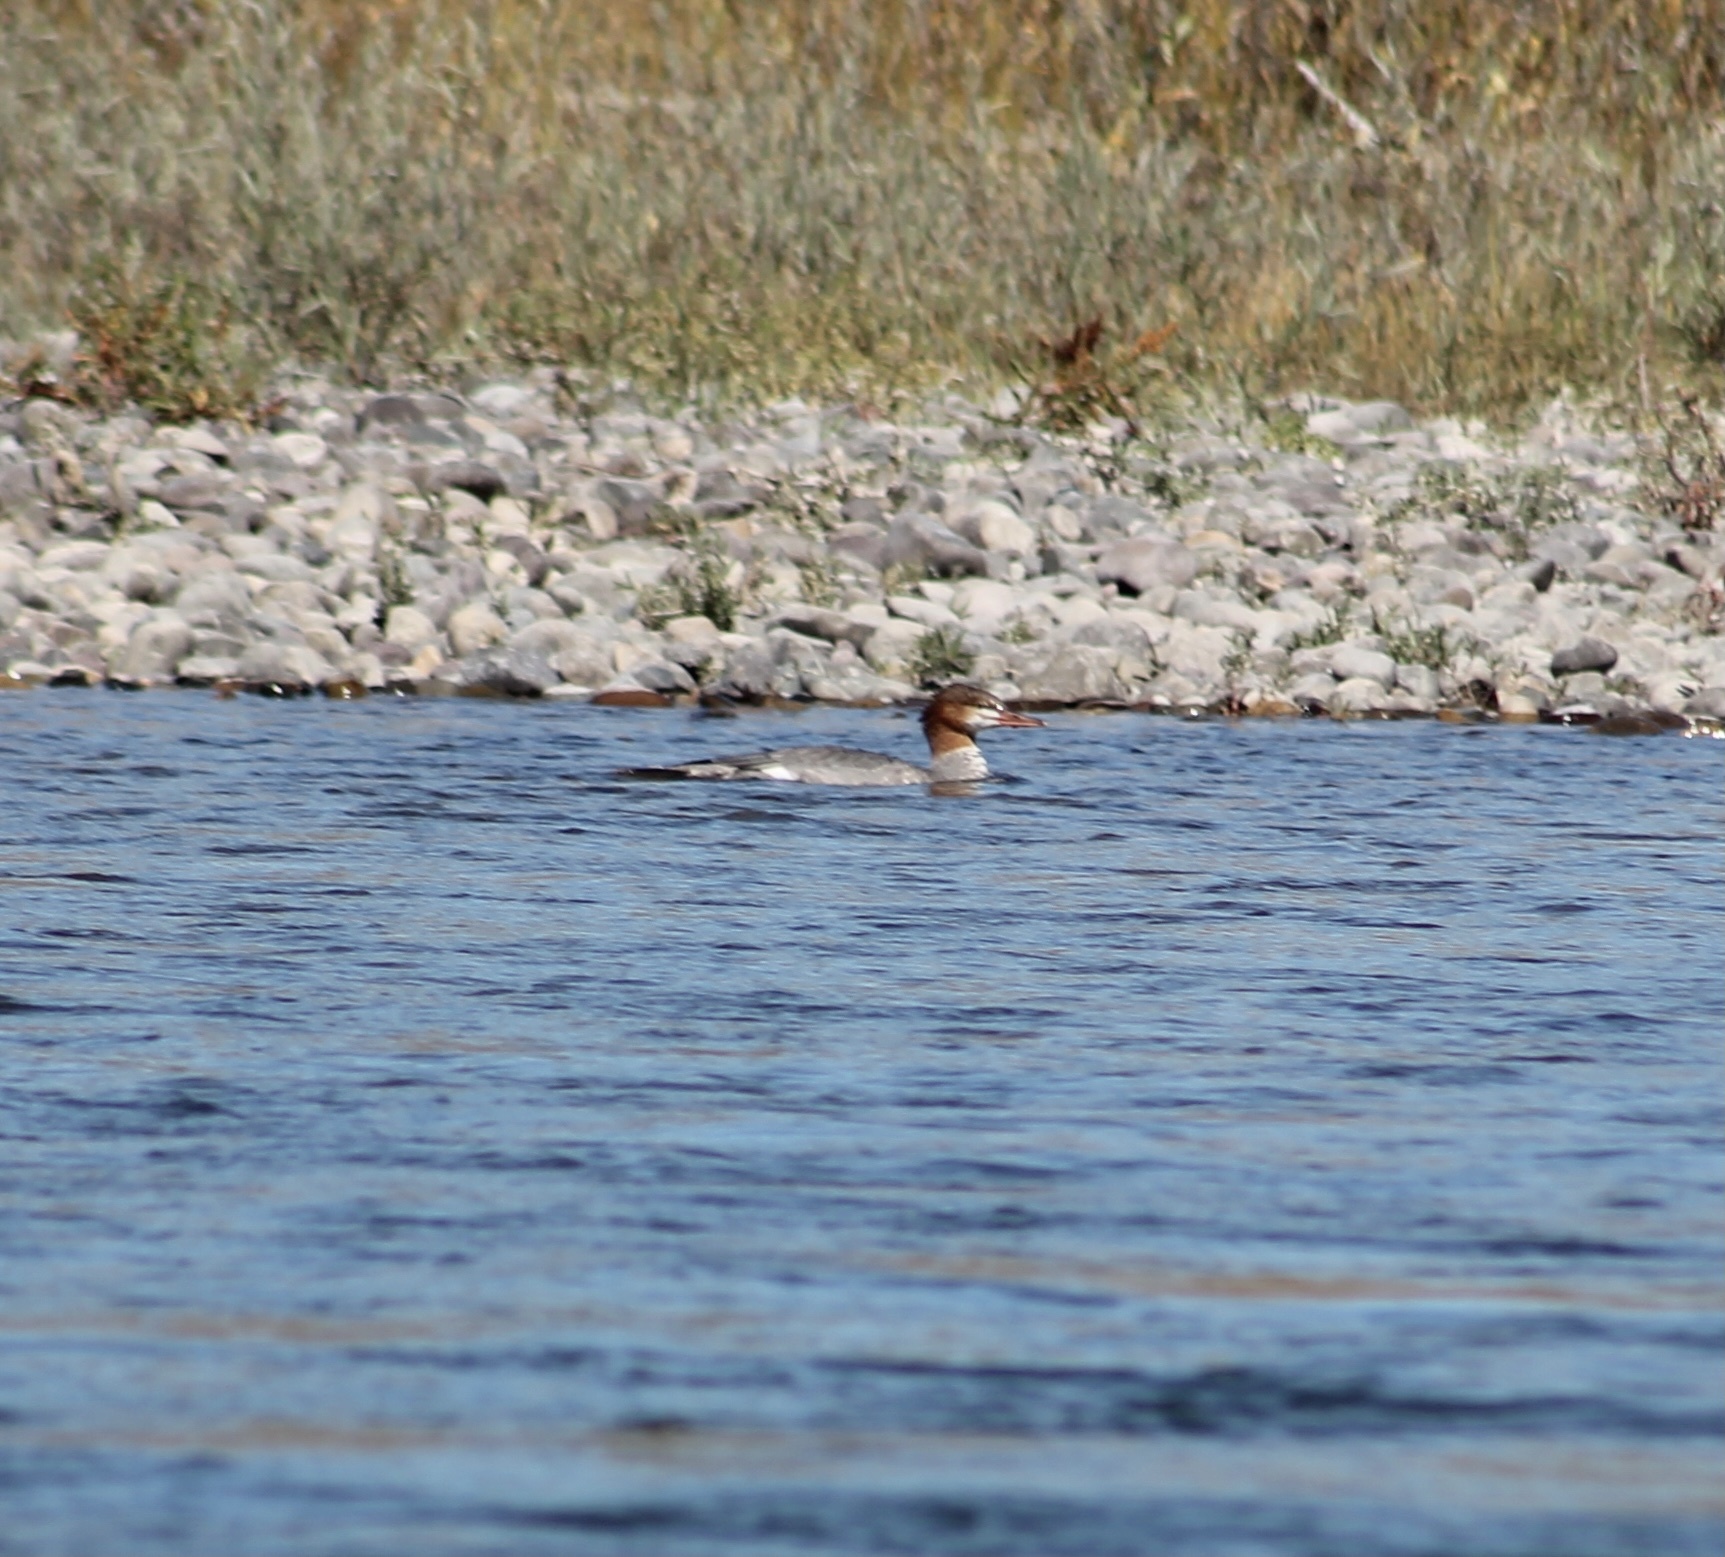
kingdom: Animalia
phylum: Chordata
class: Aves
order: Anseriformes
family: Anatidae
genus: Mergus
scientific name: Mergus merganser
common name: Common merganser
